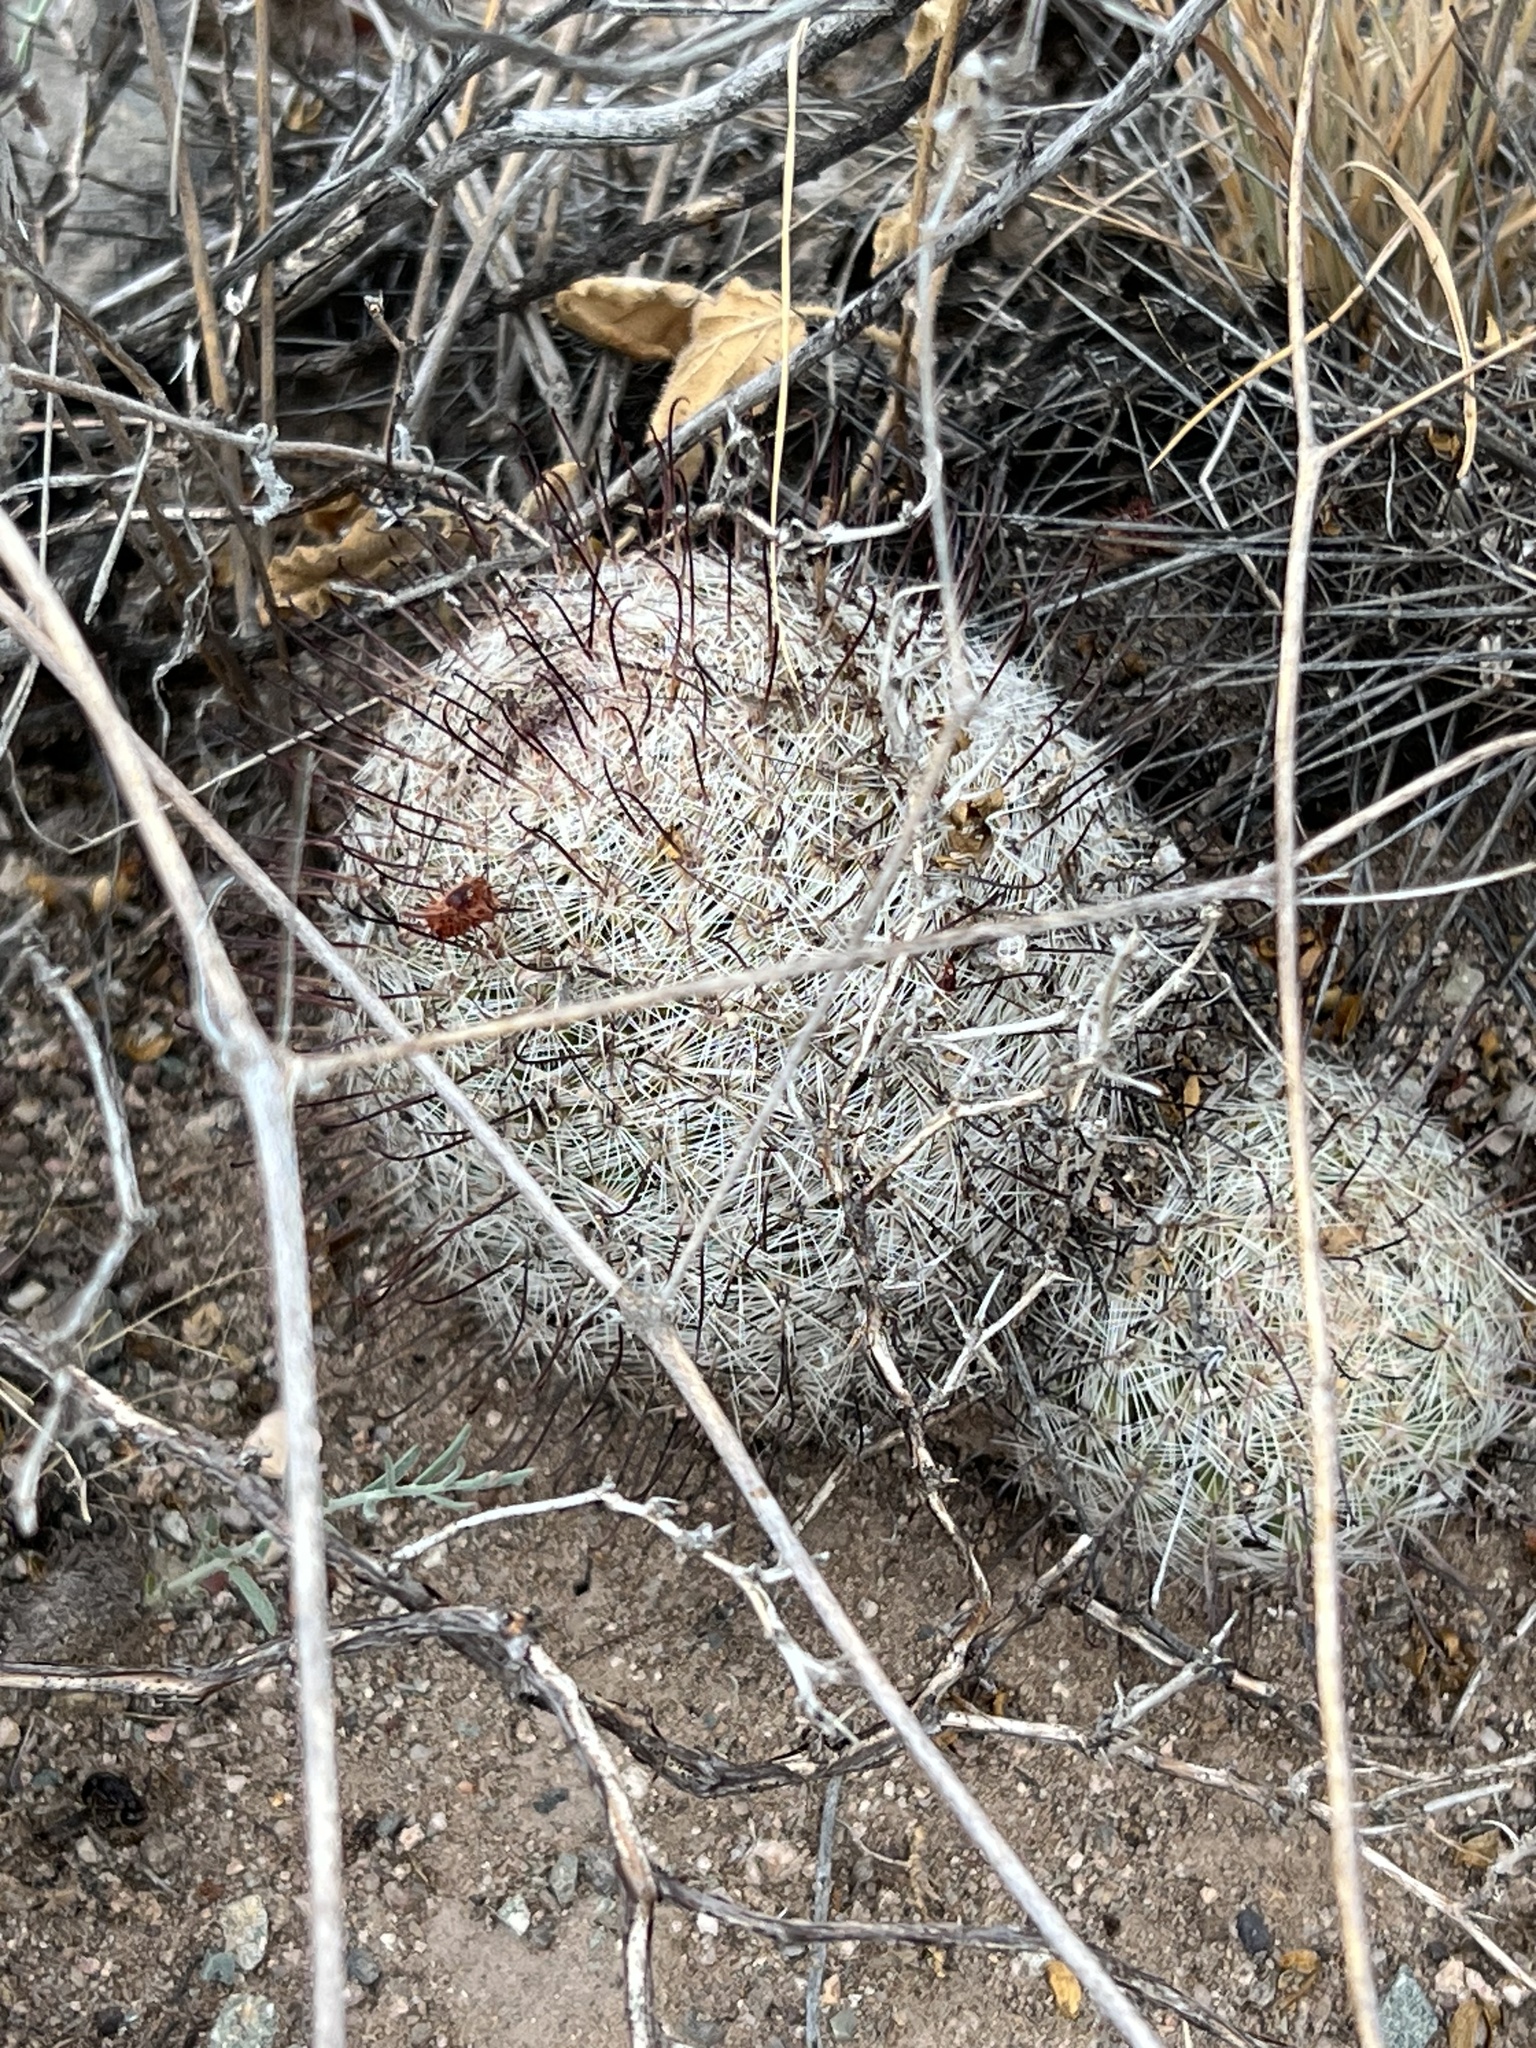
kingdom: Plantae
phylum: Tracheophyta
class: Magnoliopsida
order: Caryophyllales
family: Cactaceae
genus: Cochemiea
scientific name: Cochemiea grahamii
